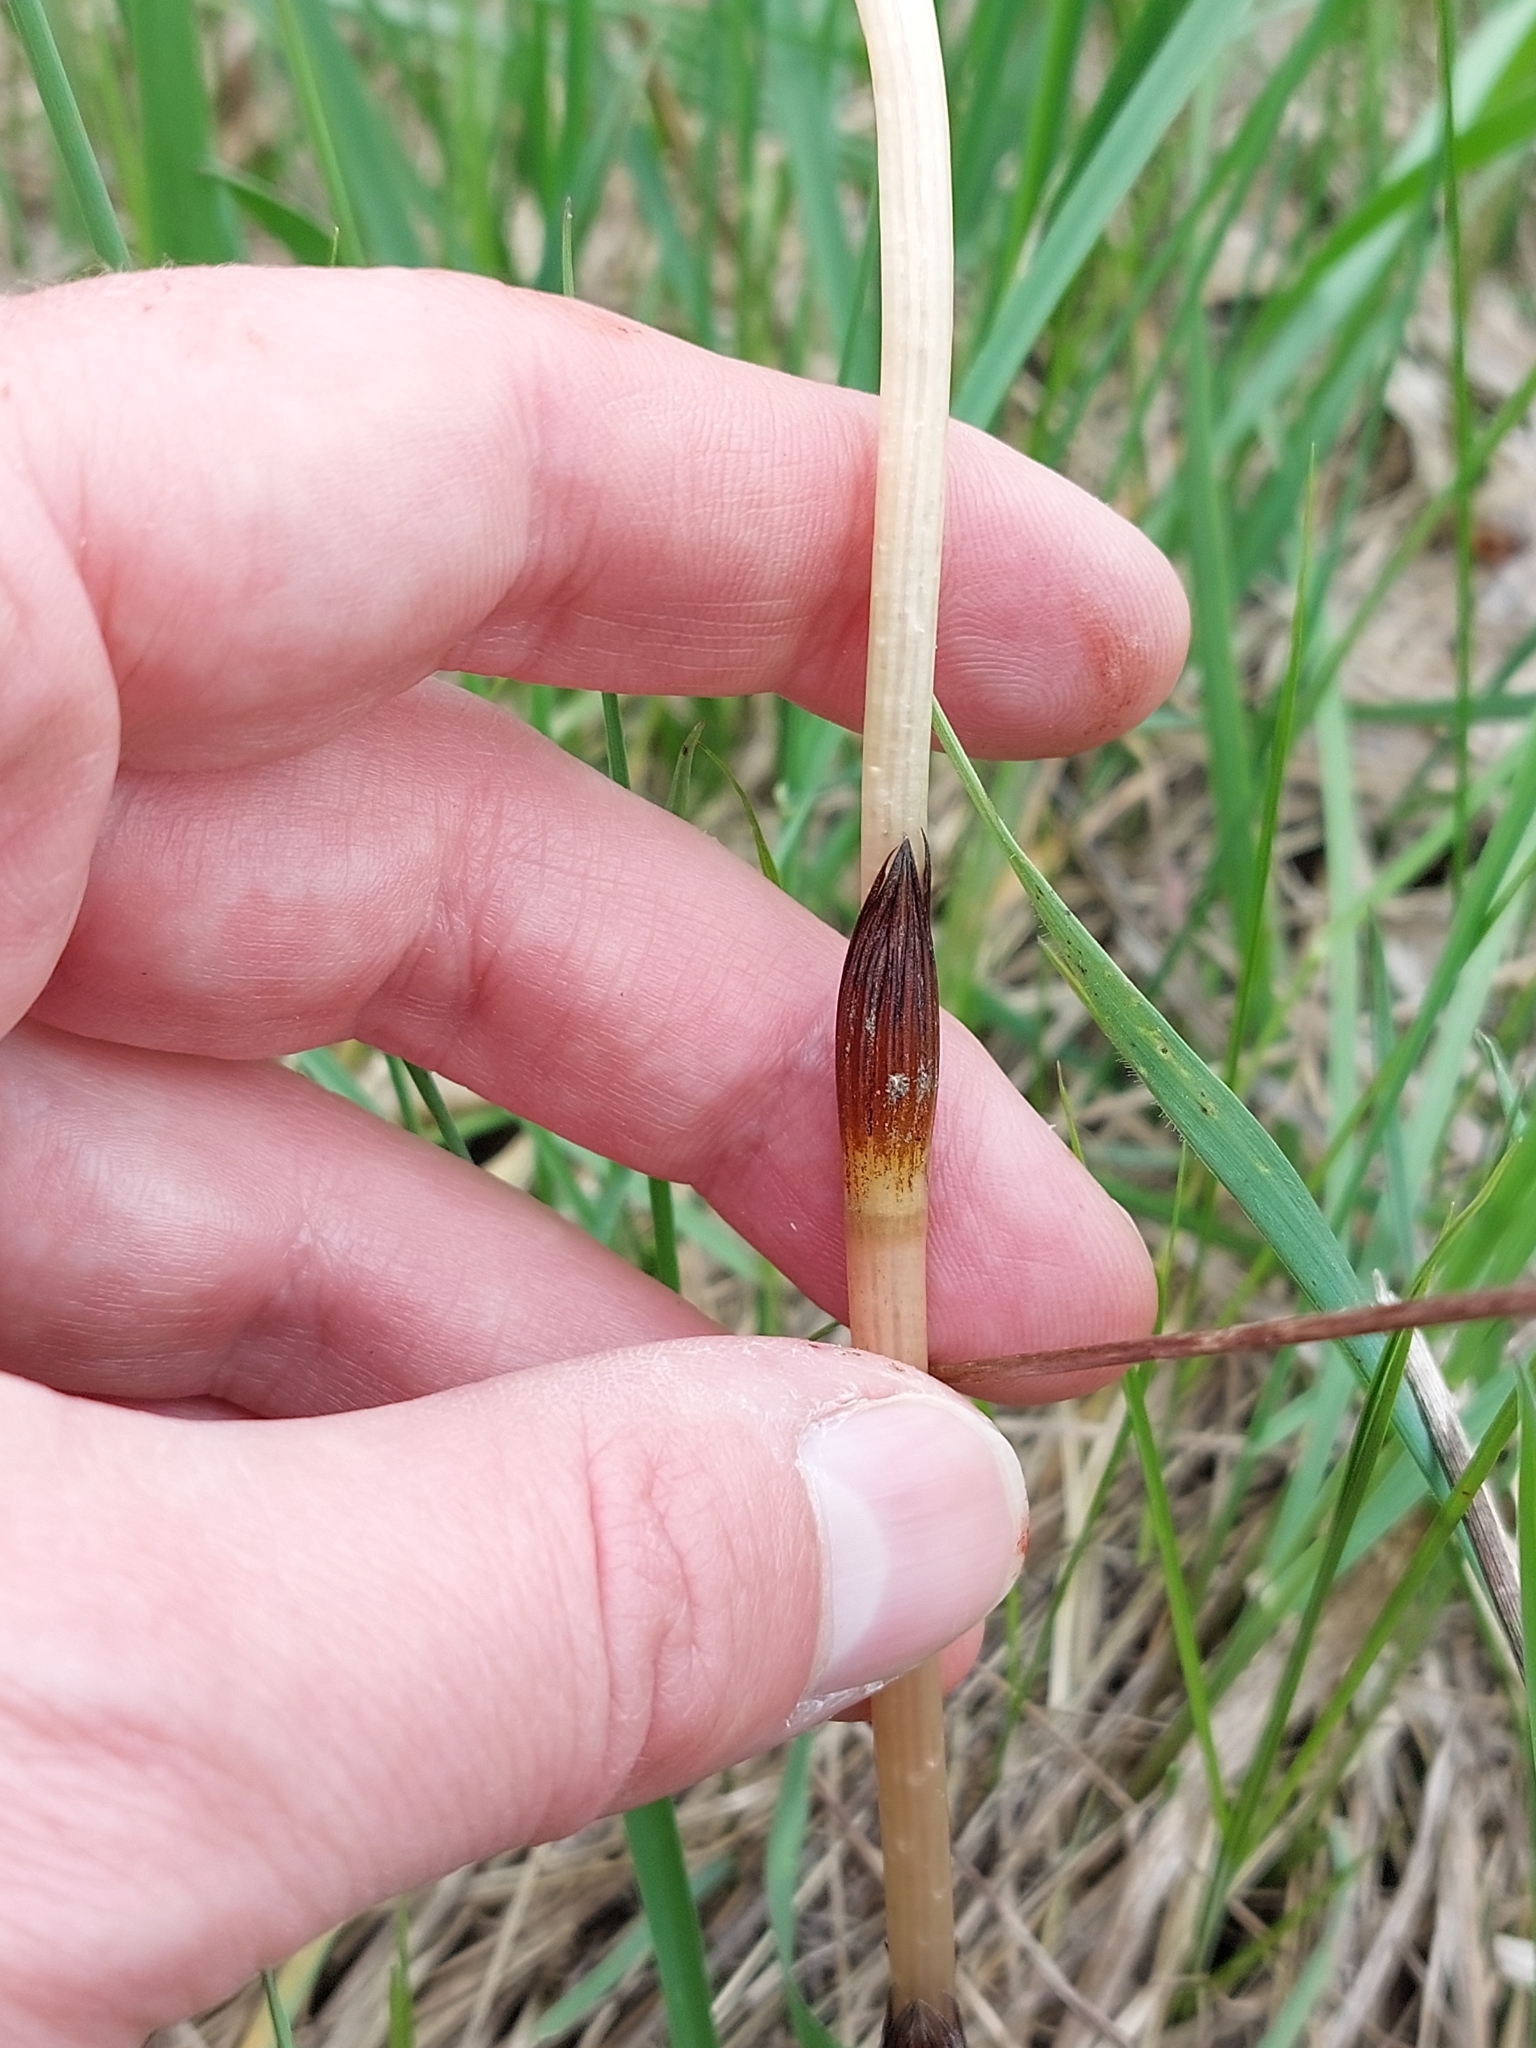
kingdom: Plantae
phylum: Tracheophyta
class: Polypodiopsida
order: Equisetales
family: Equisetaceae
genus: Equisetum
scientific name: Equisetum arvense
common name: Field horsetail
